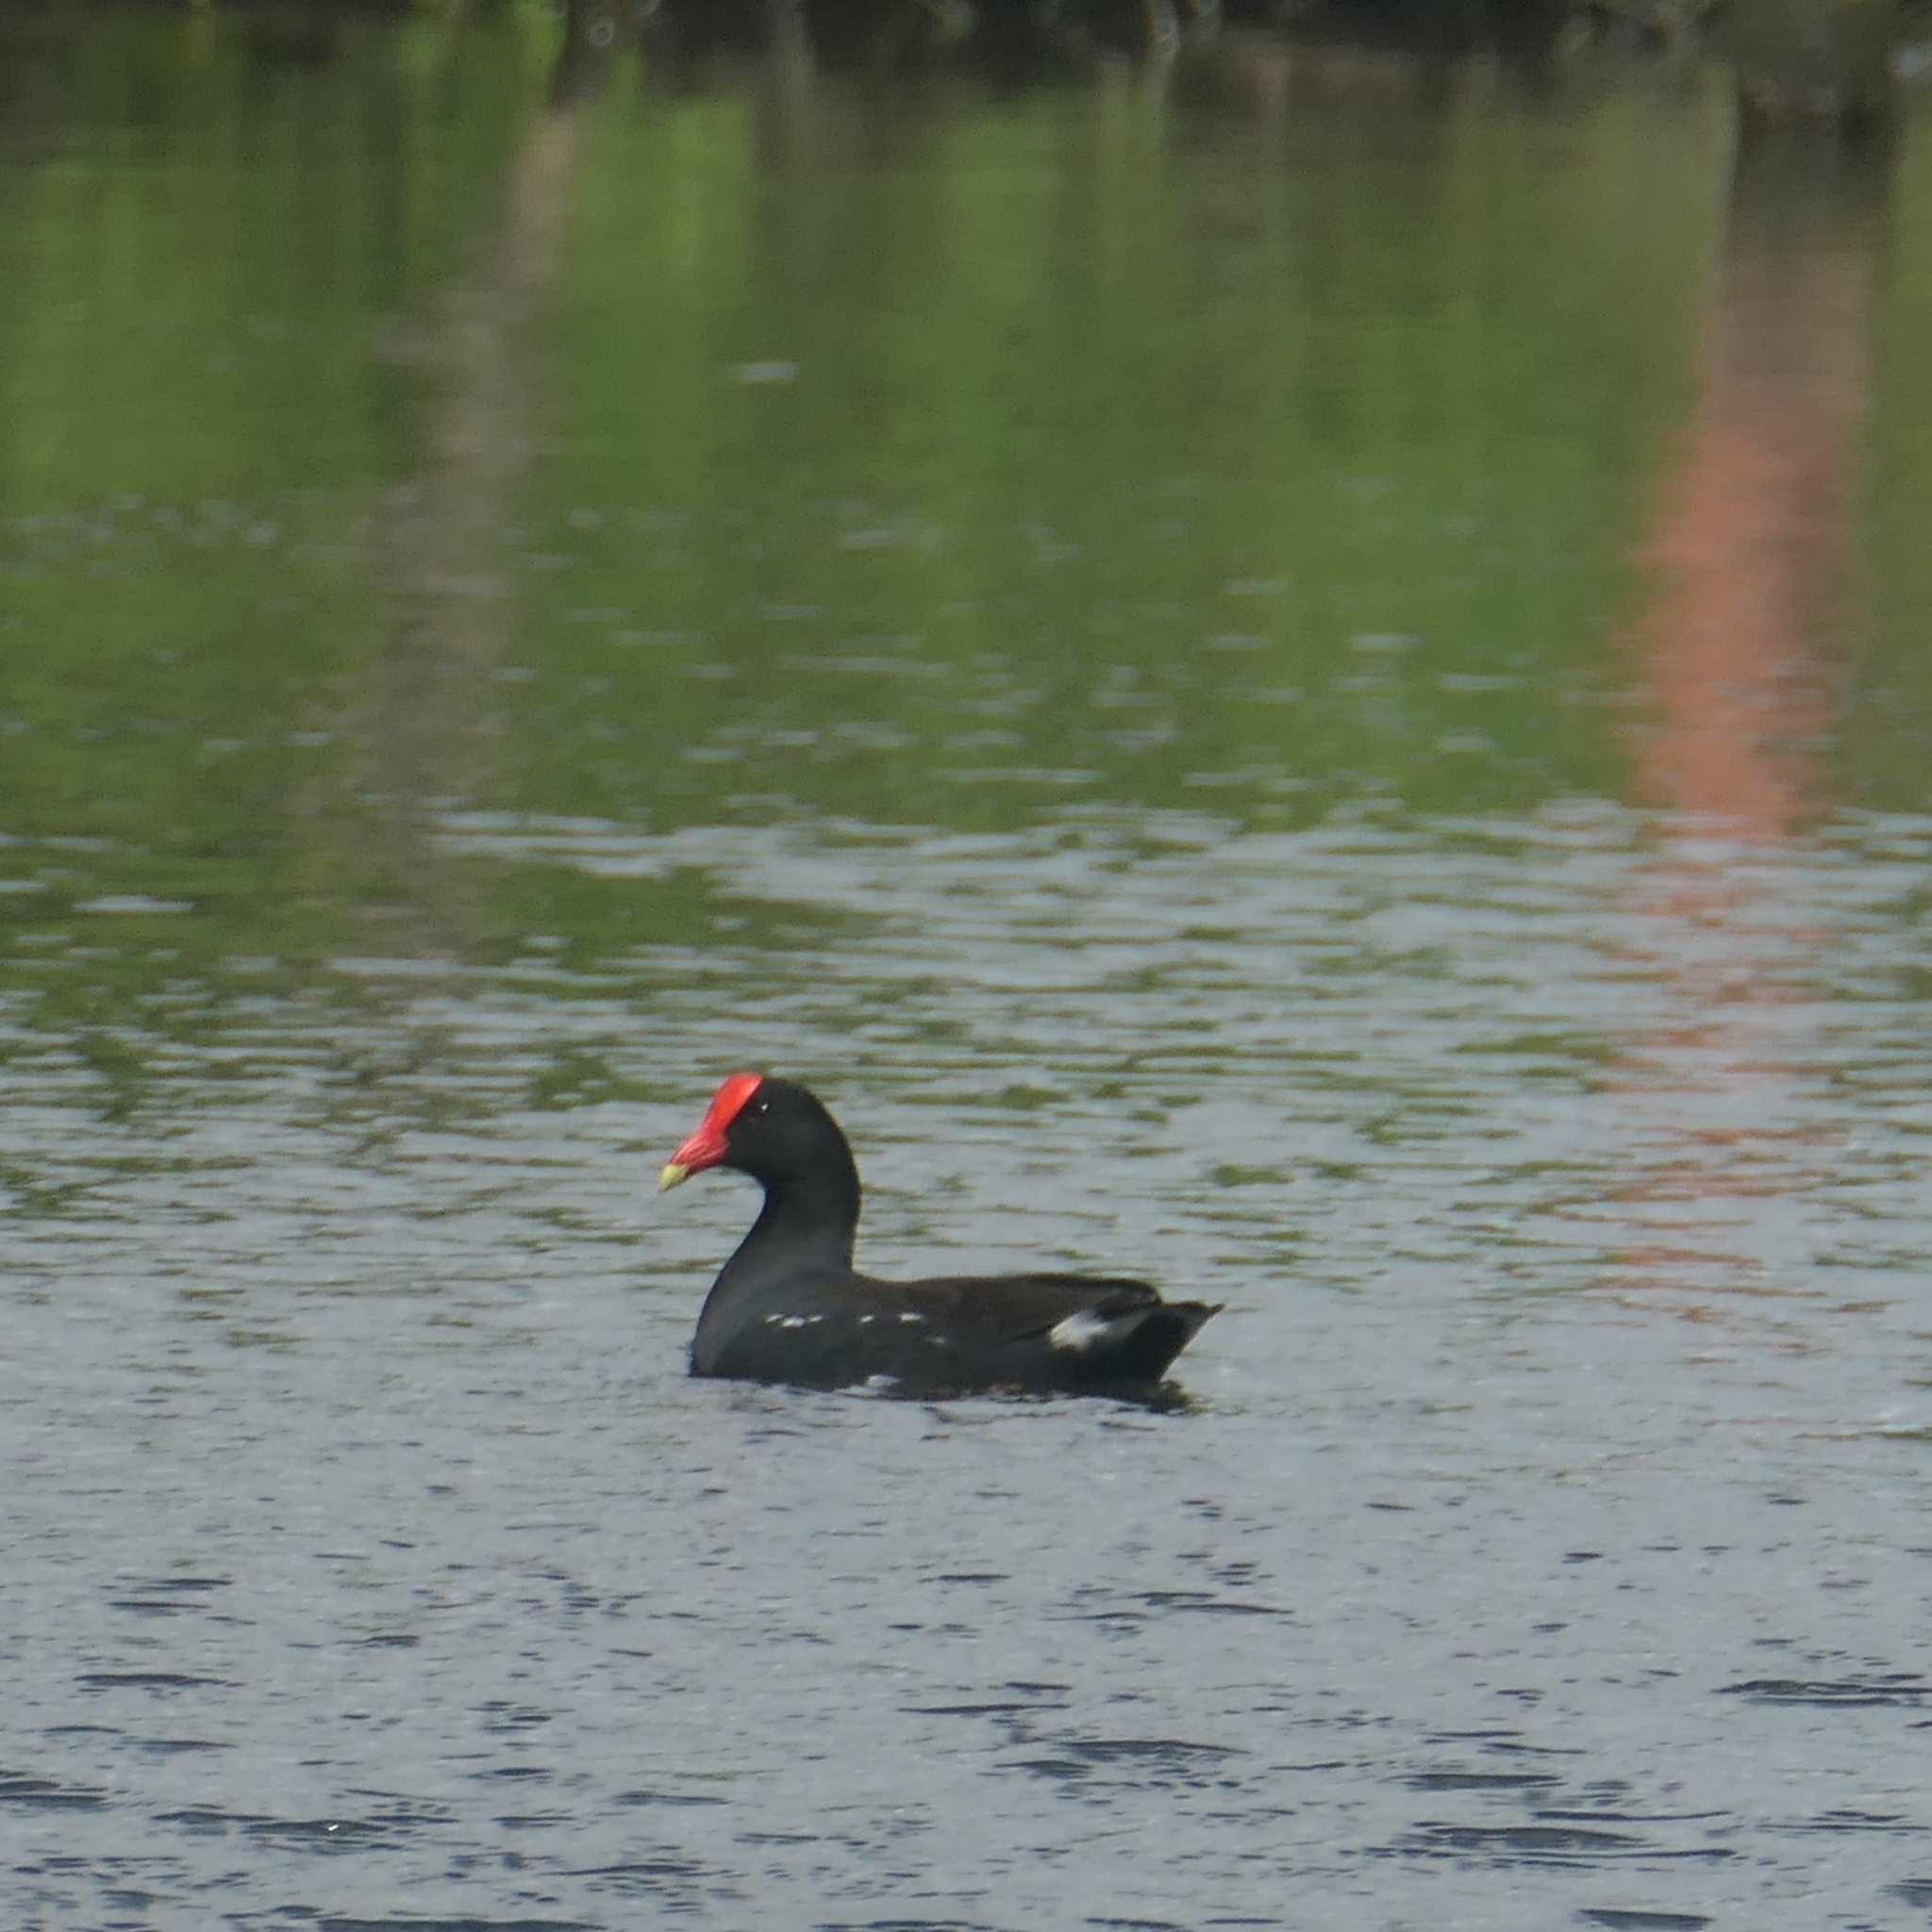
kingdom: Animalia
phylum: Chordata
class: Aves
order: Gruiformes
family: Rallidae
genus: Gallinula
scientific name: Gallinula chloropus
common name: Common moorhen
